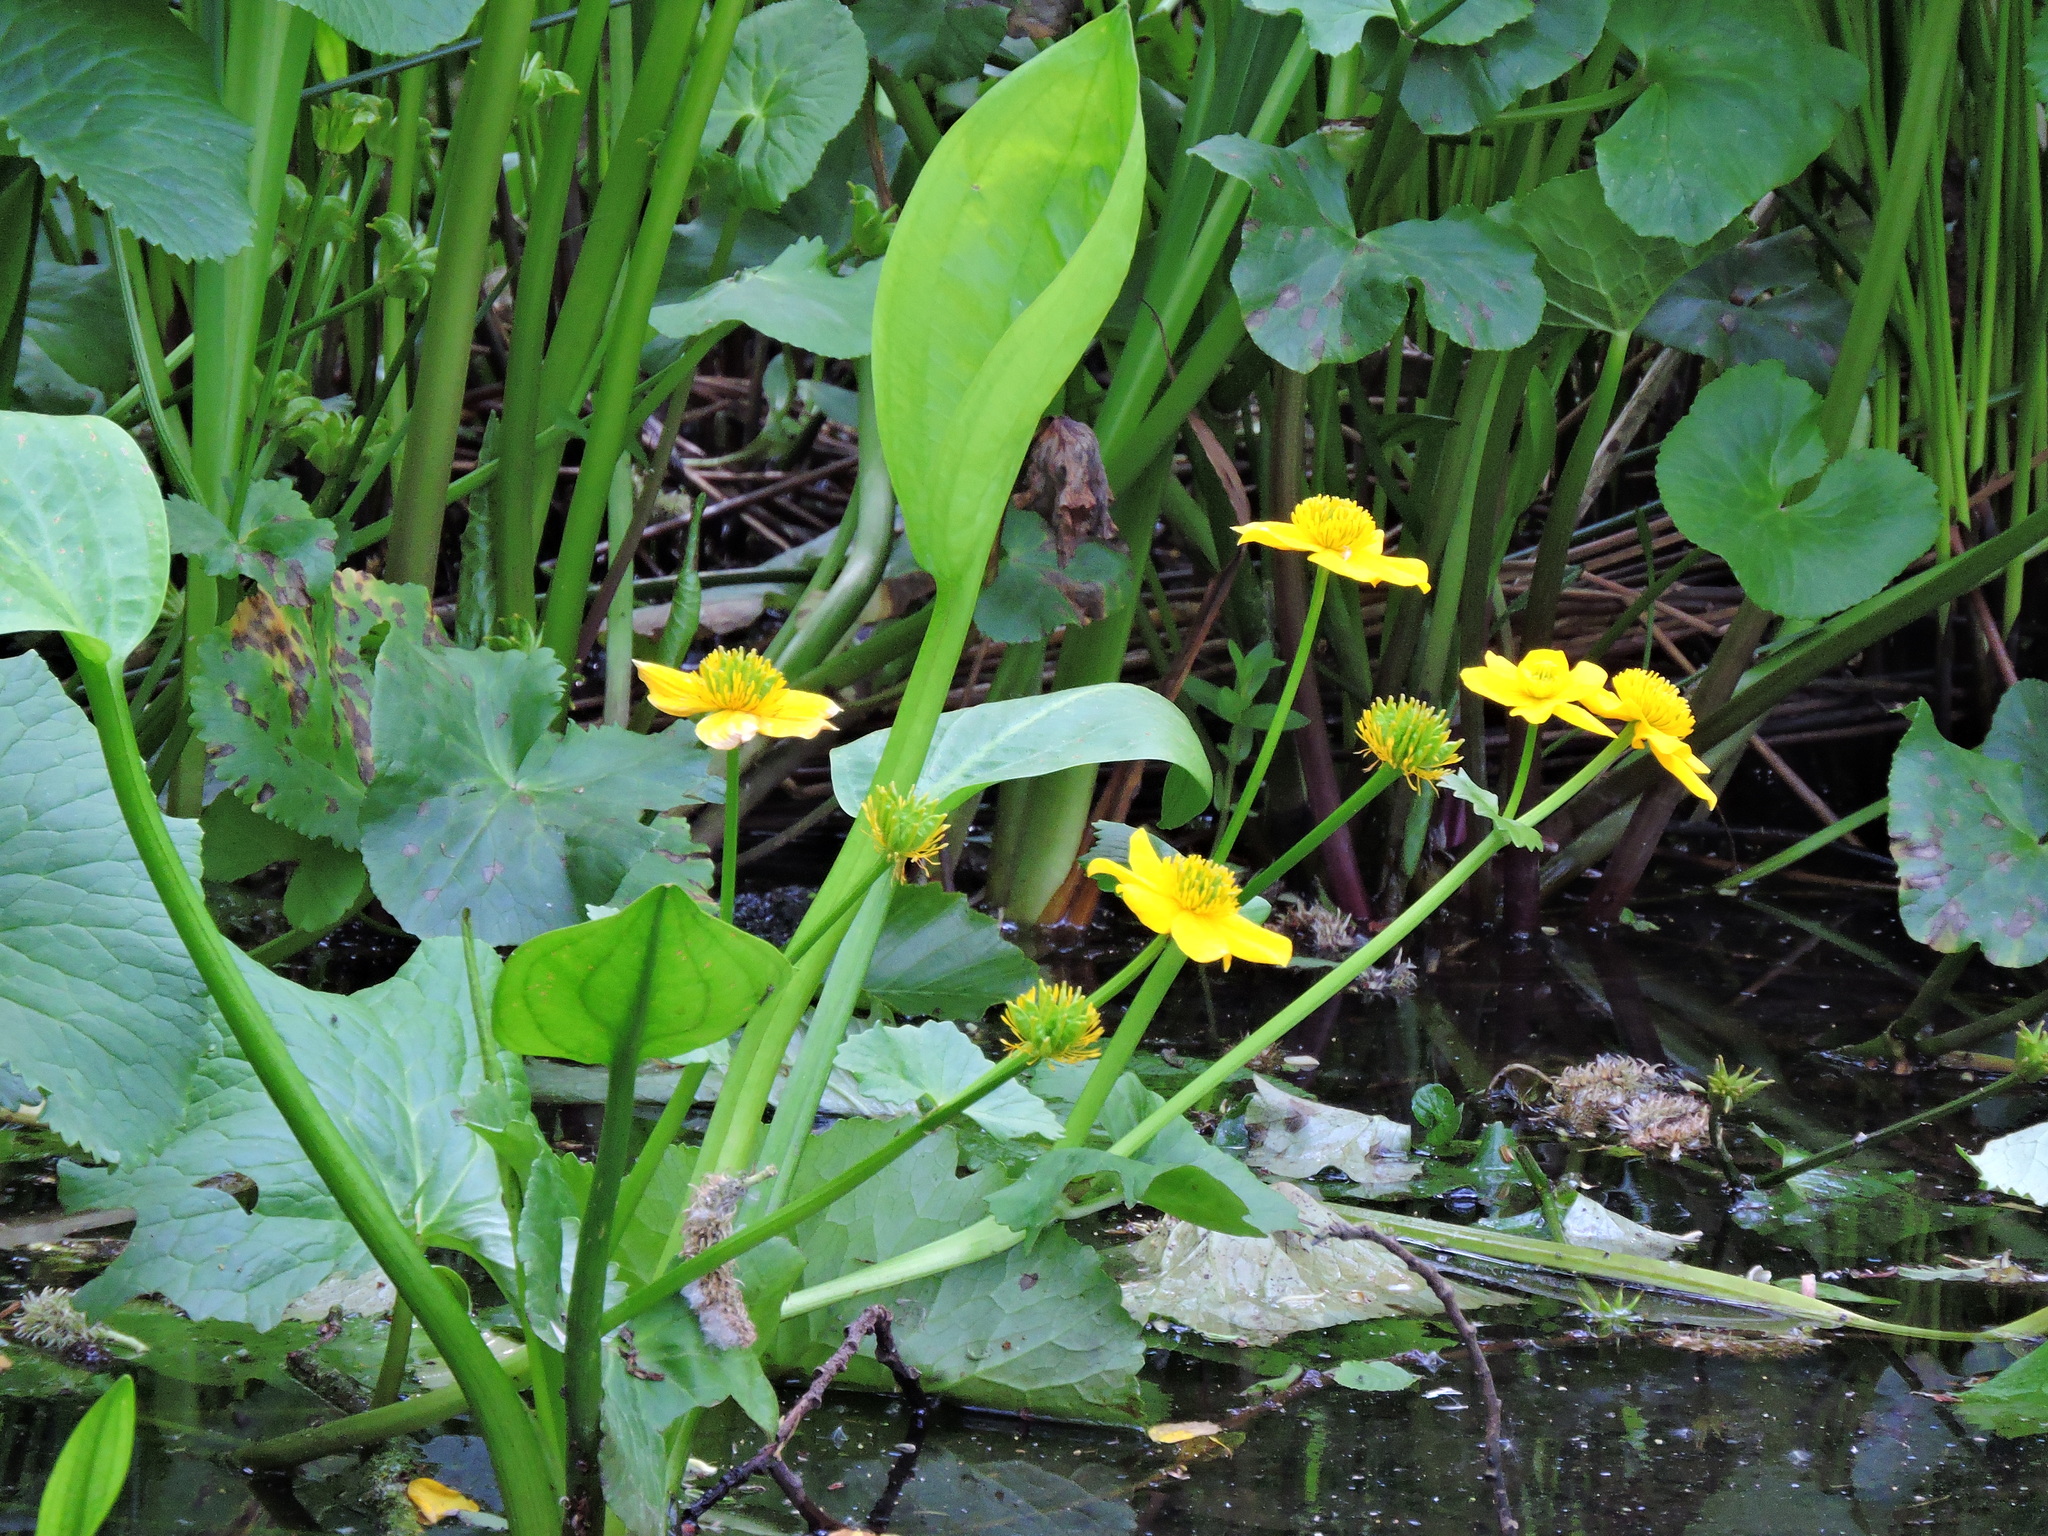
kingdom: Plantae
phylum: Tracheophyta
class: Magnoliopsida
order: Ranunculales
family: Ranunculaceae
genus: Caltha
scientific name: Caltha palustris
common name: Marsh marigold
